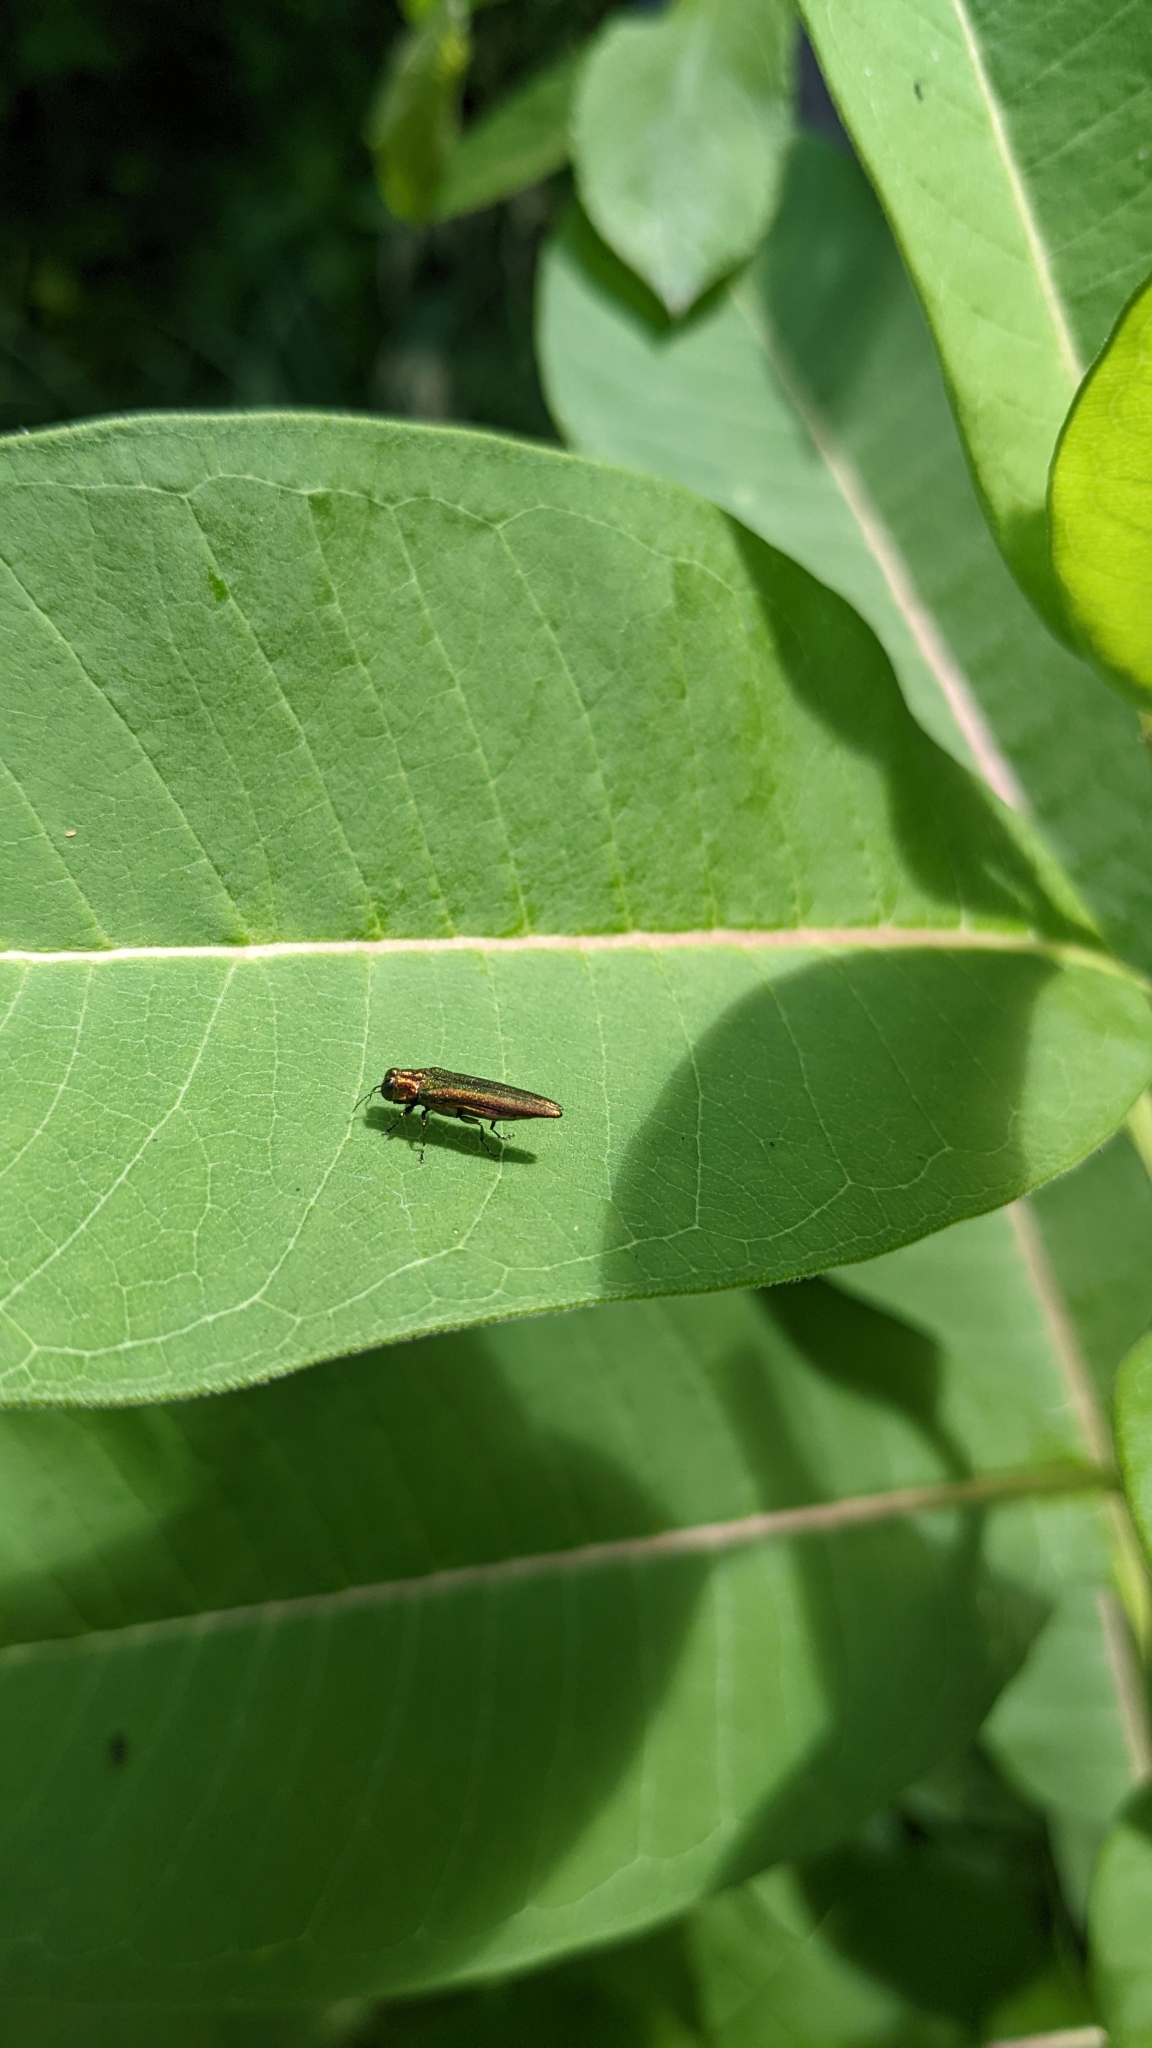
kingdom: Animalia
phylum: Arthropoda
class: Insecta
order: Coleoptera
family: Buprestidae
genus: Agrilus
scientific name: Agrilus planipennis
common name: Emerald ash borer
